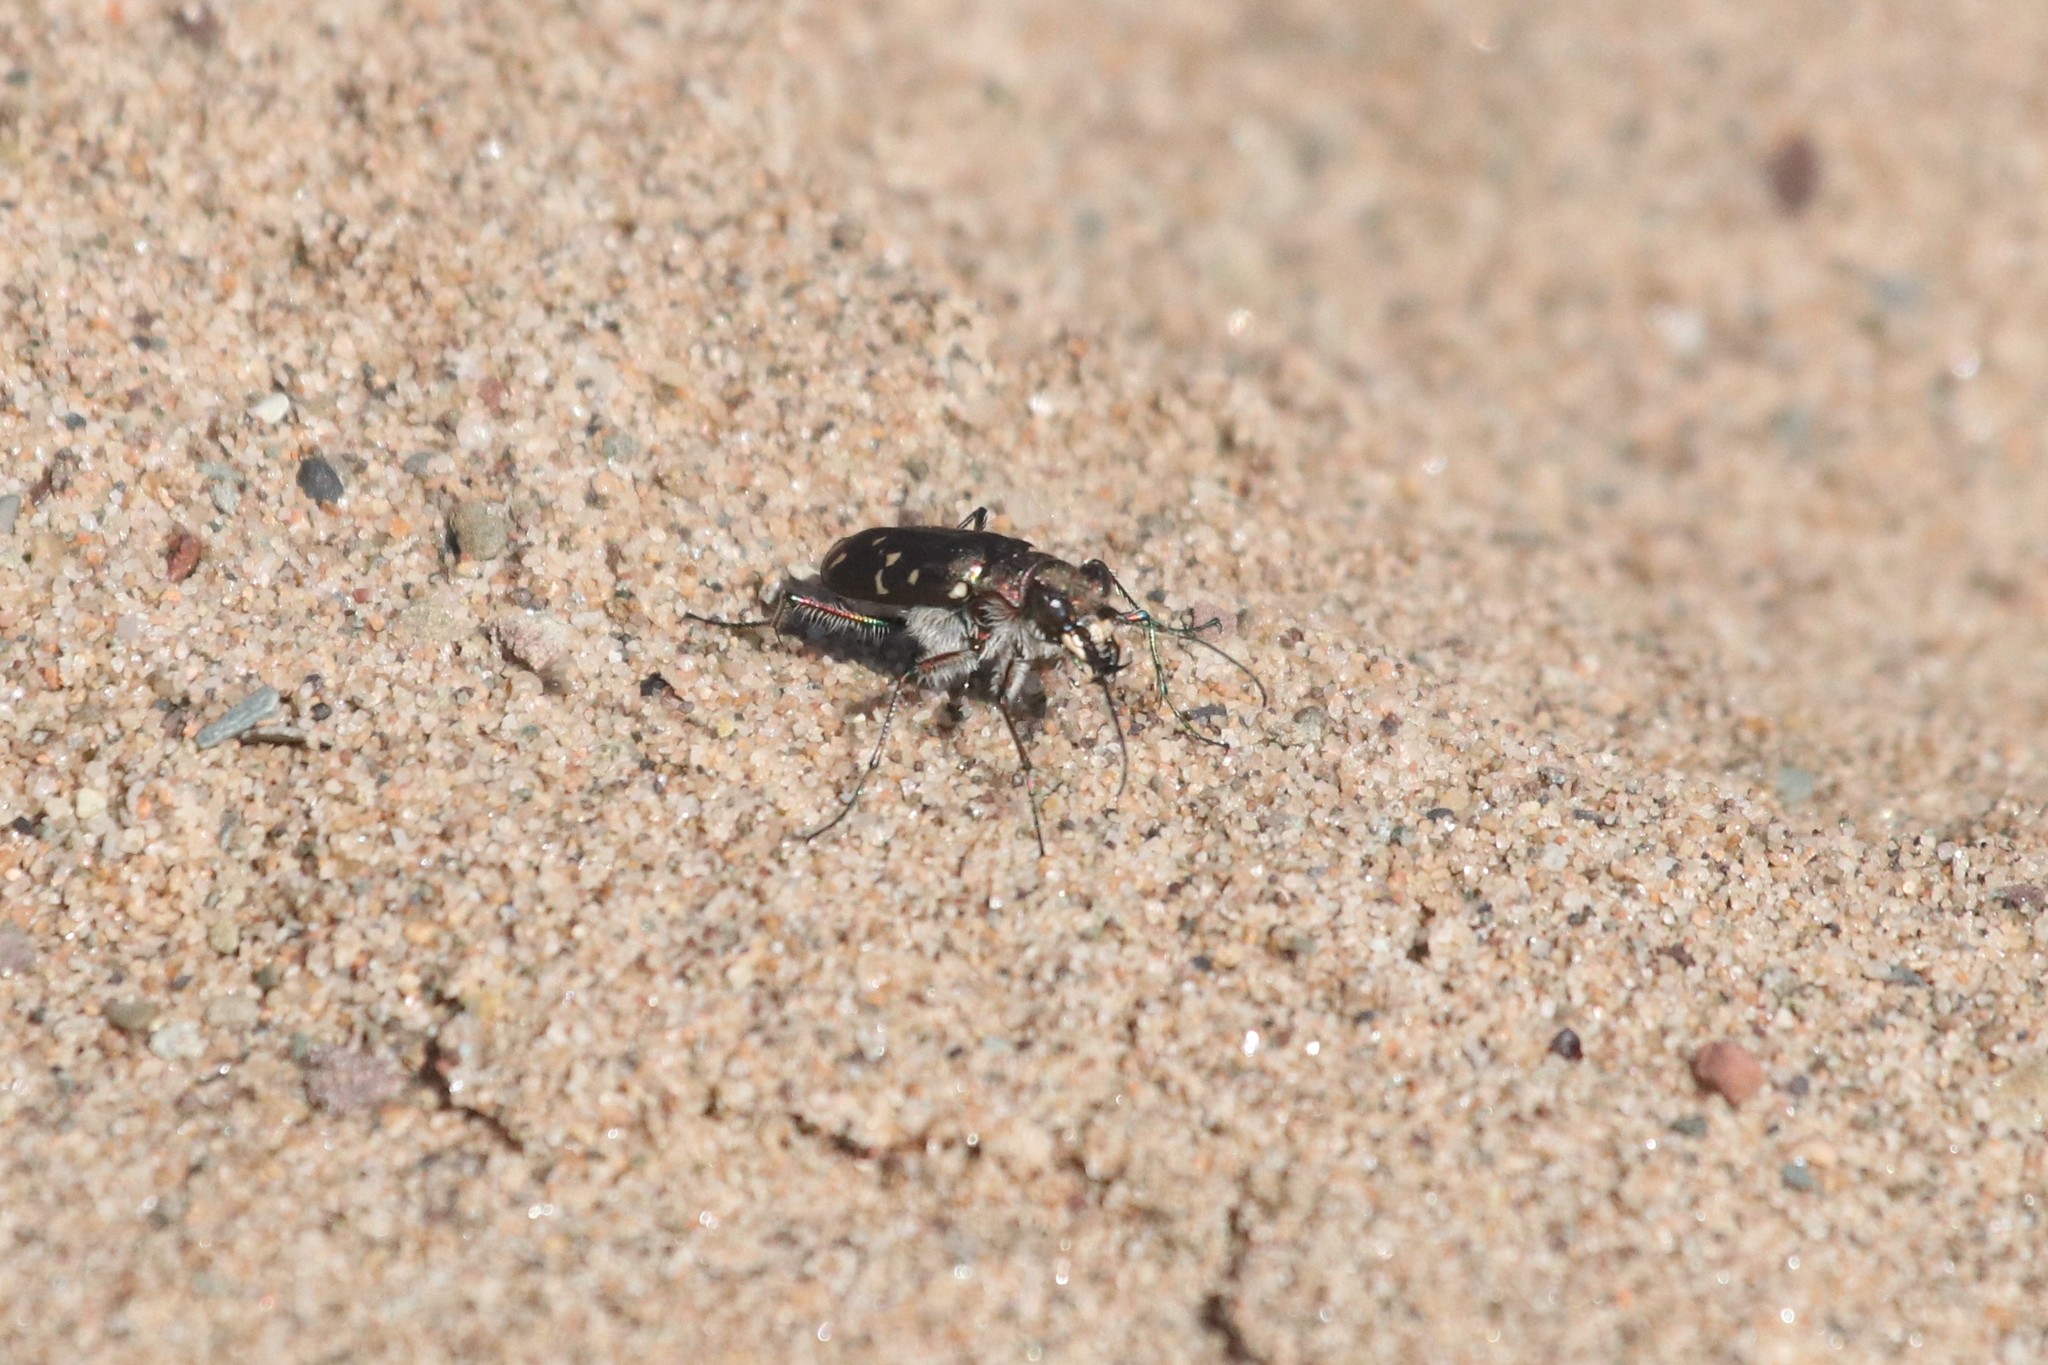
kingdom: Animalia
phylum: Arthropoda
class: Insecta
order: Coleoptera
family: Carabidae
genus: Cicindela
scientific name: Cicindela duodecimguttata
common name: Twelve-spotted tiger beetle
